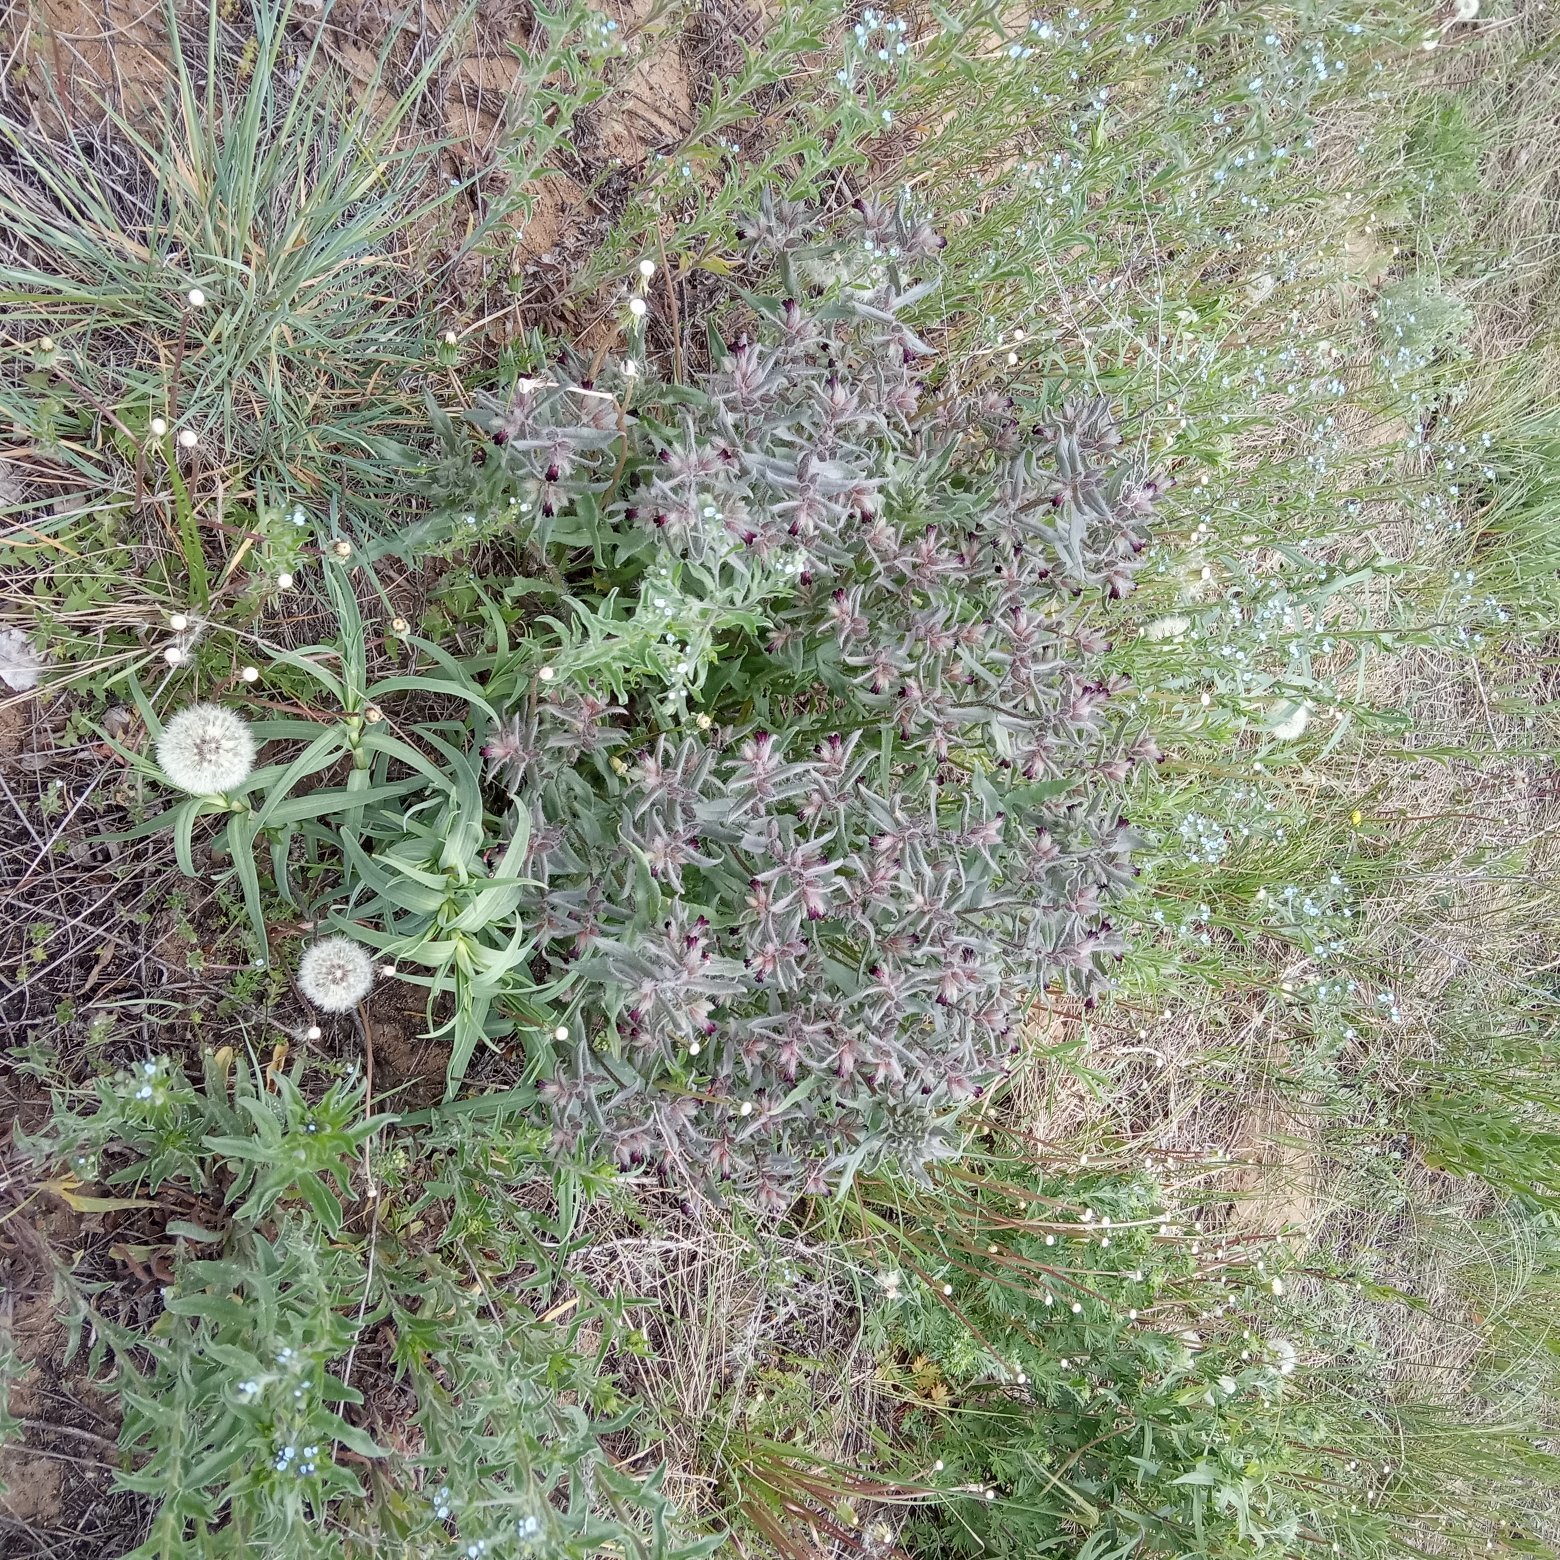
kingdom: Plantae
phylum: Tracheophyta
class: Magnoliopsida
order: Boraginales
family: Boraginaceae
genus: Nonea
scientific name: Nonea pulla
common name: Brown nonea
